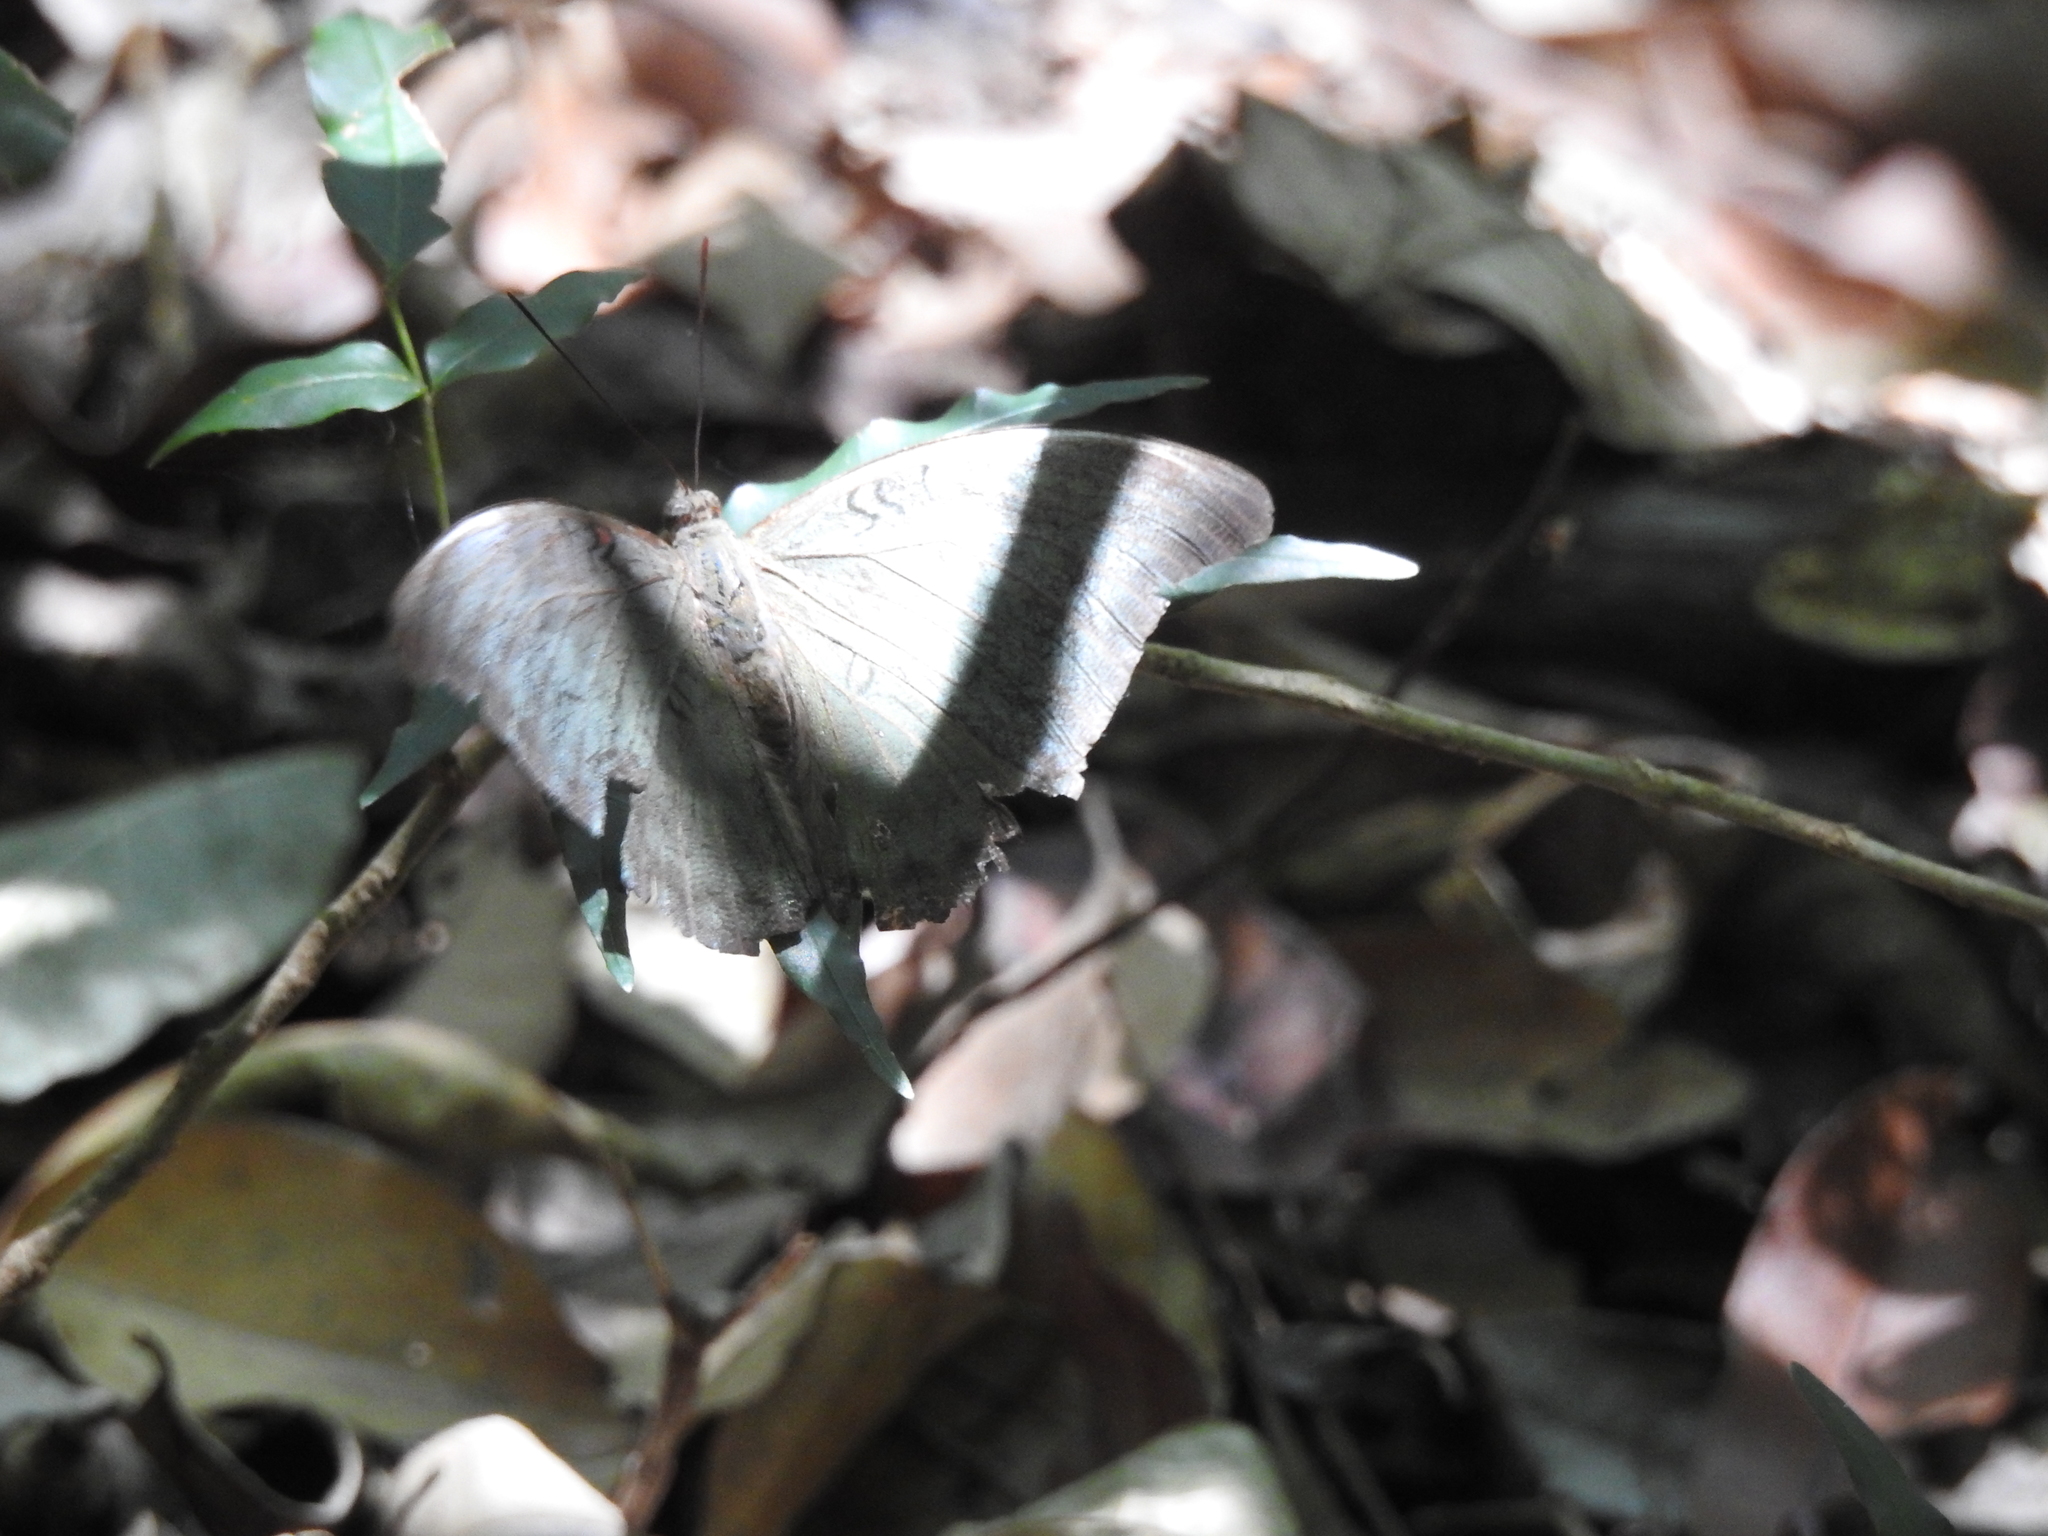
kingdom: Animalia
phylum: Arthropoda
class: Insecta
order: Lepidoptera
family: Nymphalidae
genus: Euthalia
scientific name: Euthalia Dophla evelina
